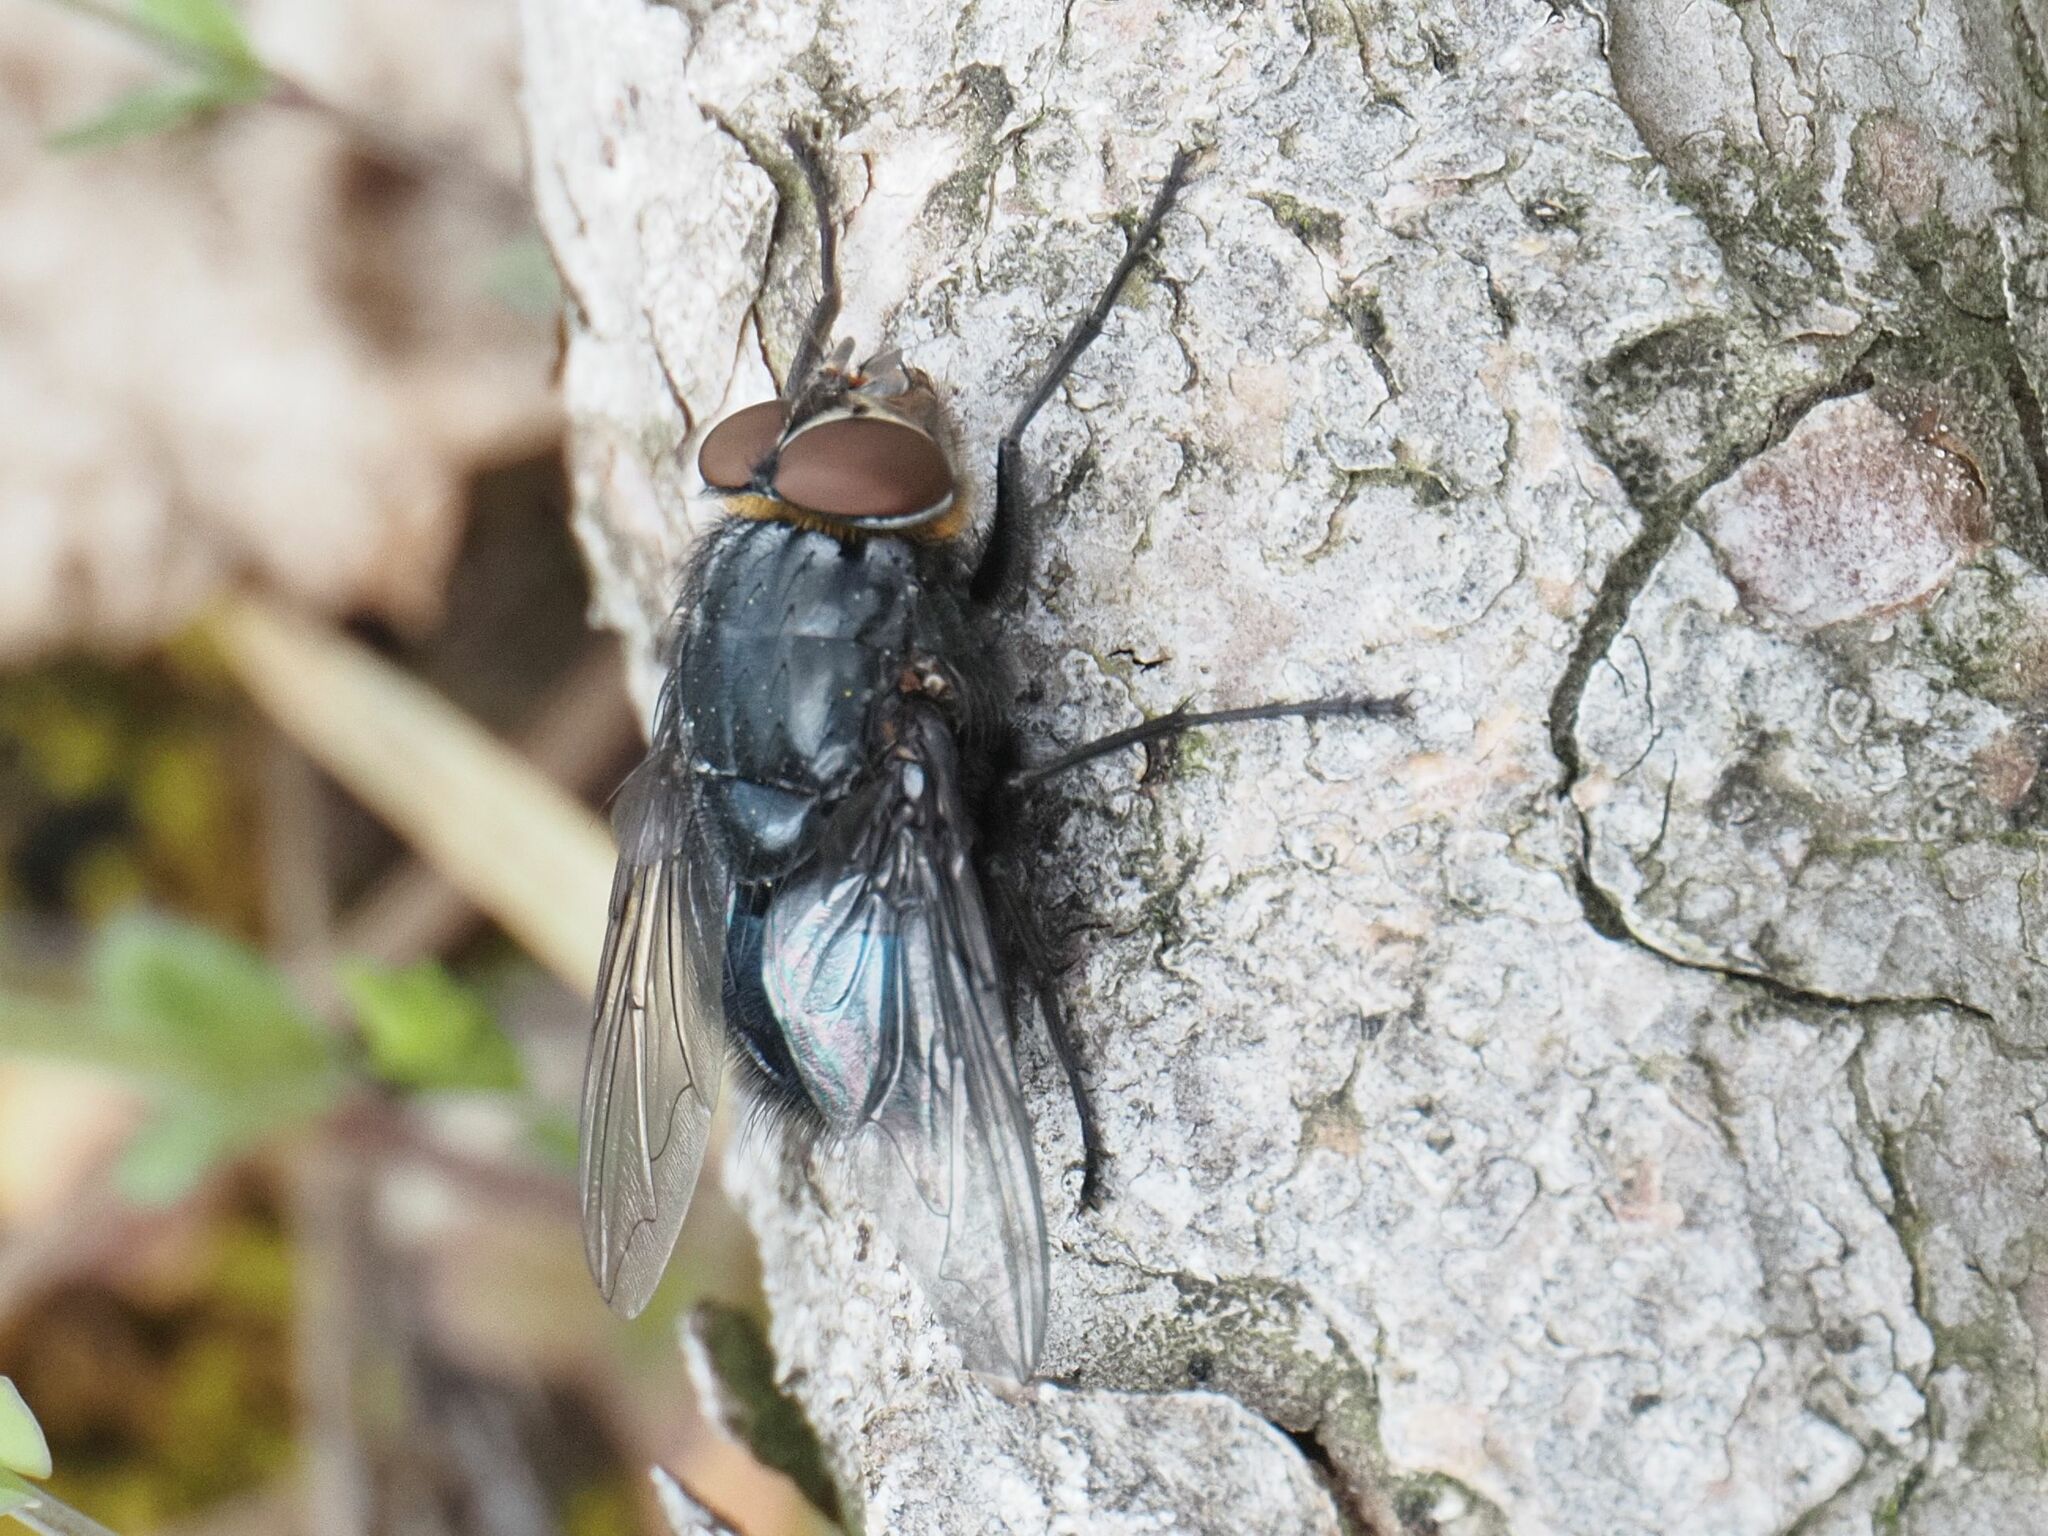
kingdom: Animalia
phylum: Arthropoda
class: Insecta
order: Diptera
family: Calliphoridae
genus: Calliphora
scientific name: Calliphora vomitoria
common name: Blue bottle fly
